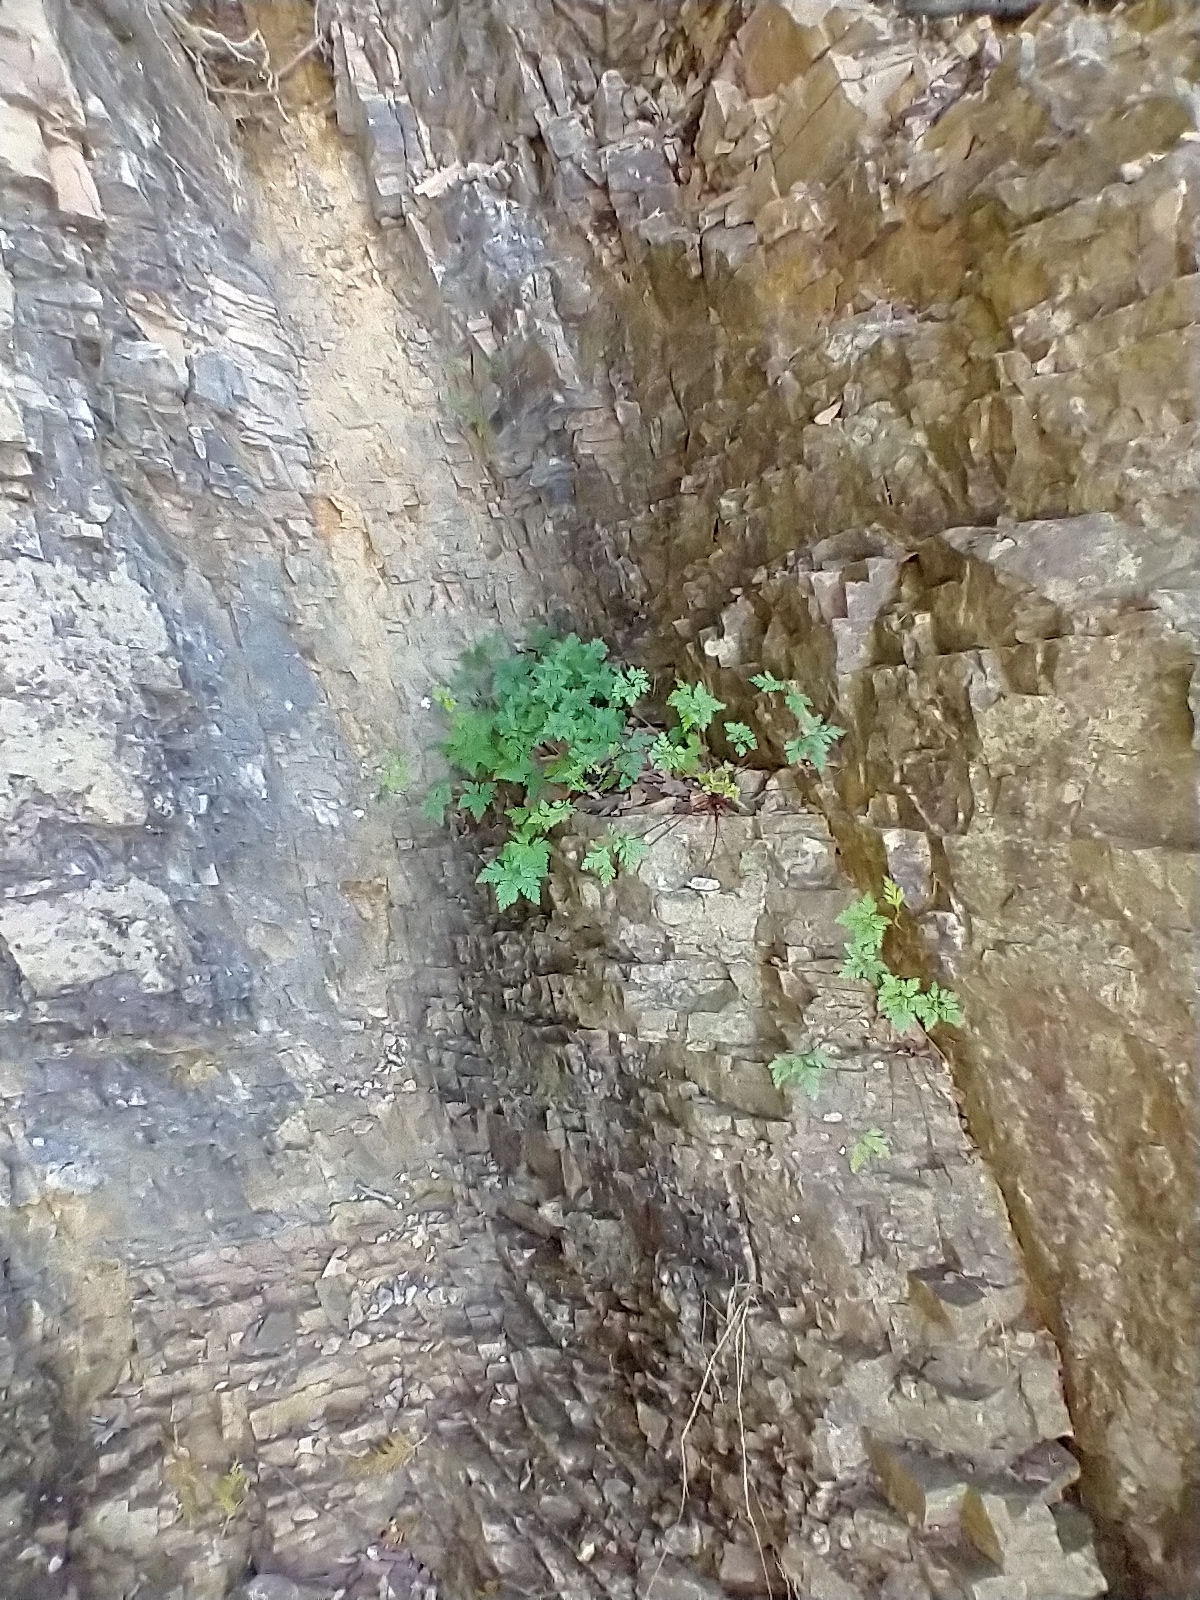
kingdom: Plantae
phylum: Tracheophyta
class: Magnoliopsida
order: Geraniales
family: Geraniaceae
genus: Geranium
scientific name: Geranium robertianum
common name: Herb-robert
